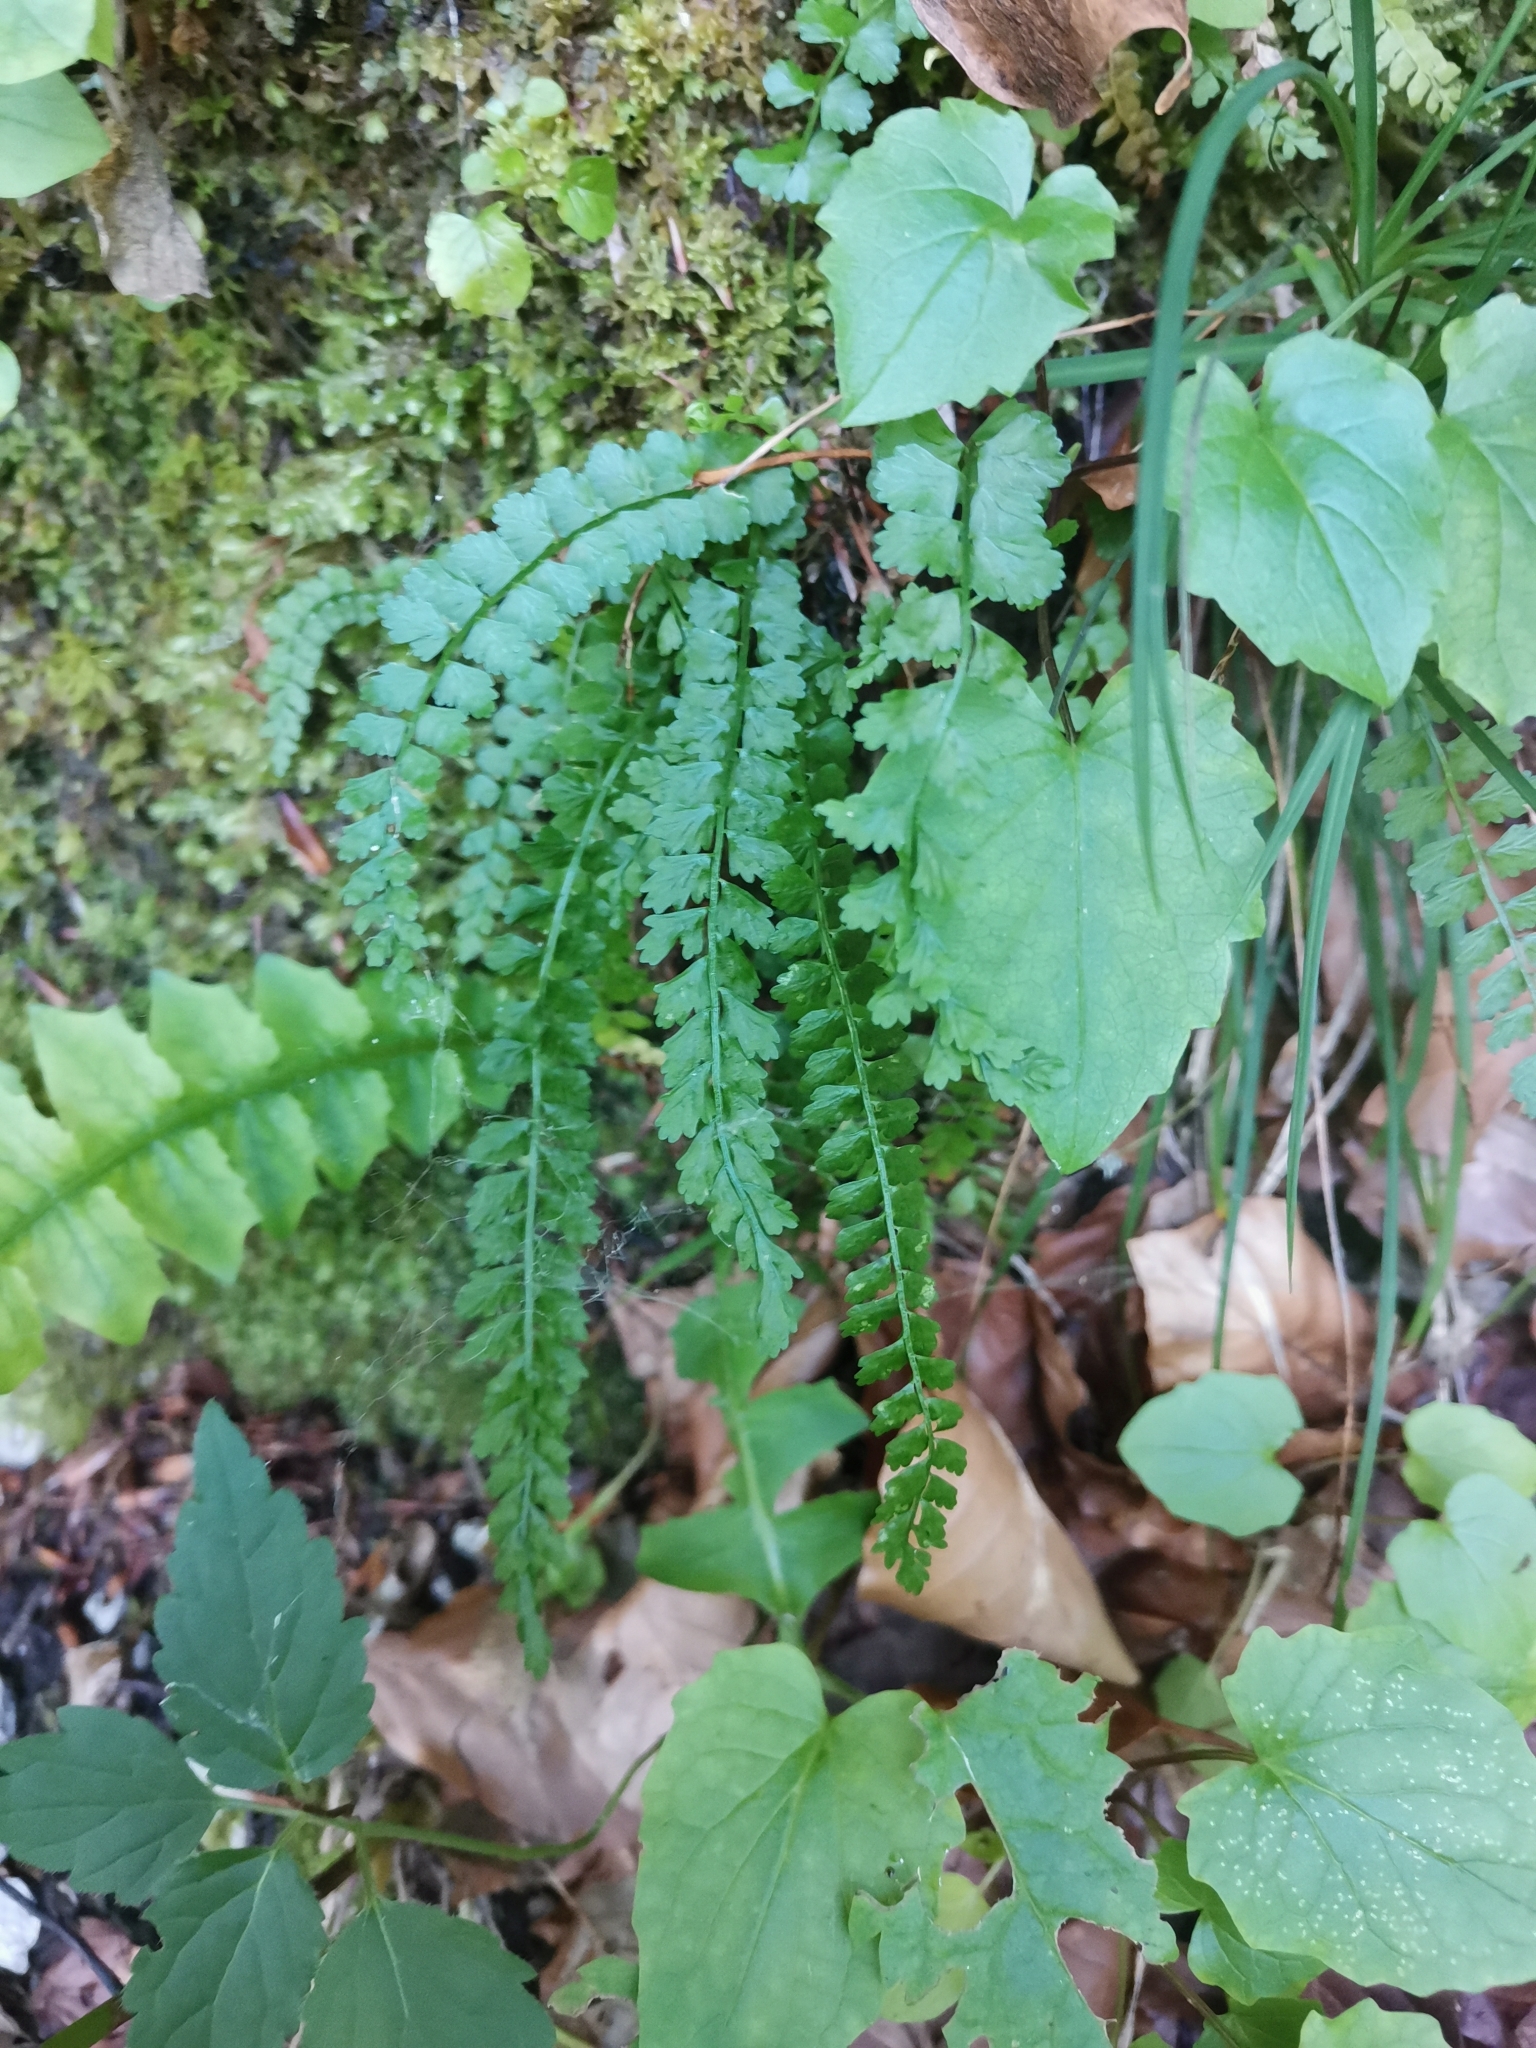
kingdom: Plantae
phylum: Tracheophyta
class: Polypodiopsida
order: Polypodiales
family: Aspleniaceae
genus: Asplenium
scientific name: Asplenium viride
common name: Green spleenwort
